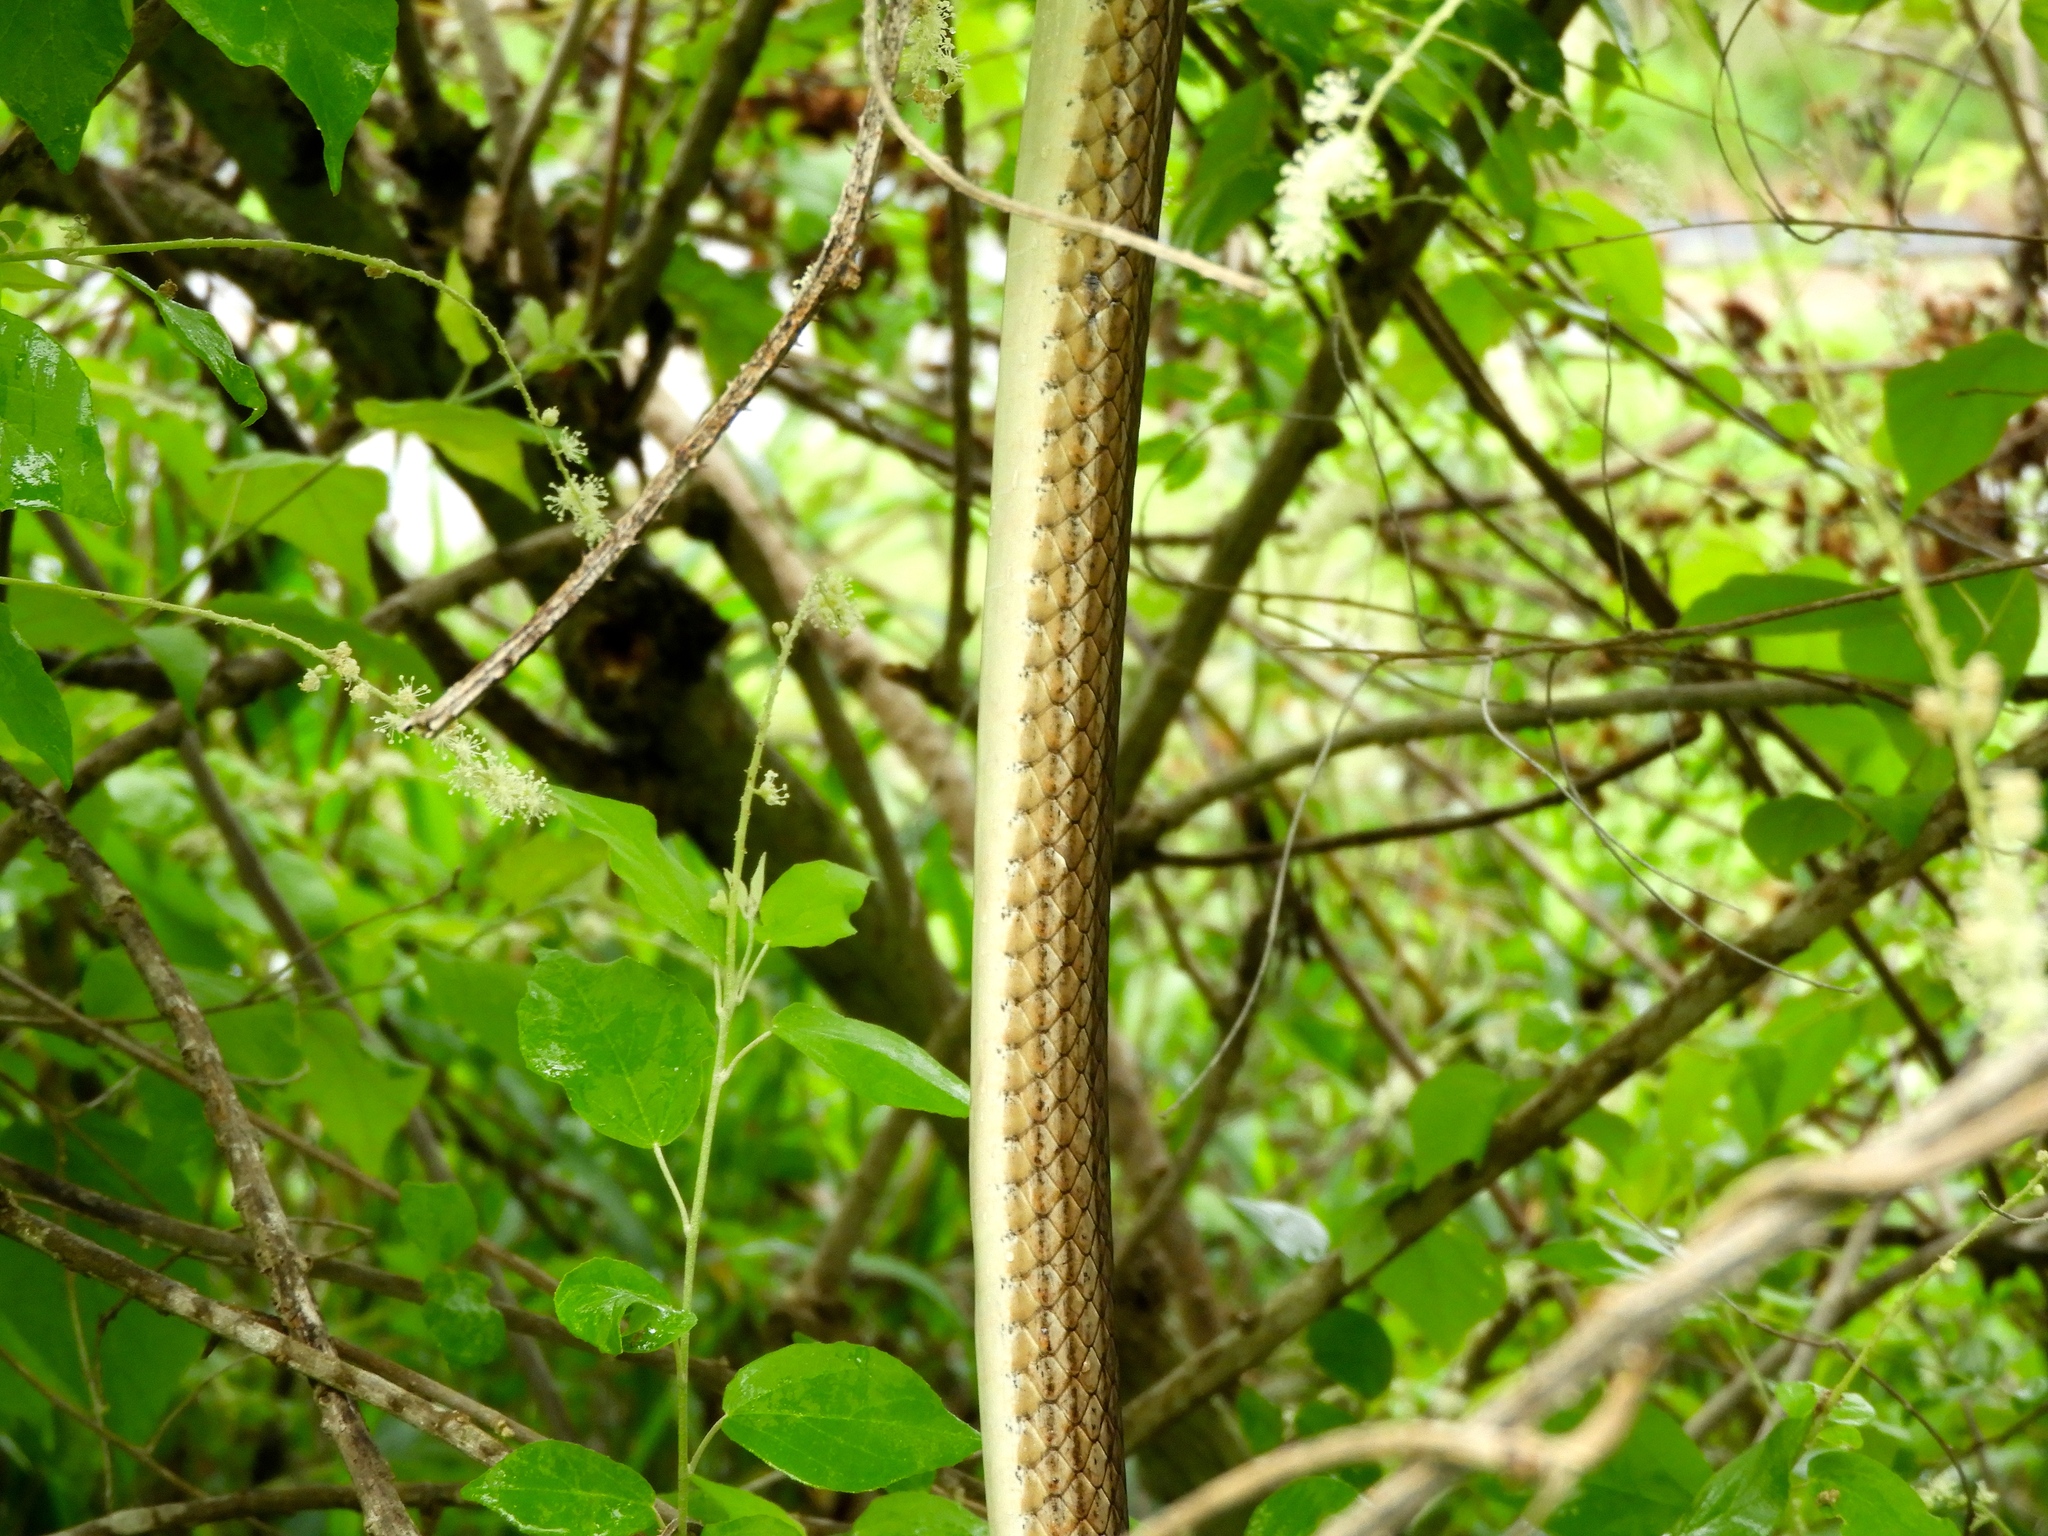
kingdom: Animalia
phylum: Chordata
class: Squamata
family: Colubridae
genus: Masticophis
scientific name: Masticophis bilineatus
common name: Sonoran whipsnake
